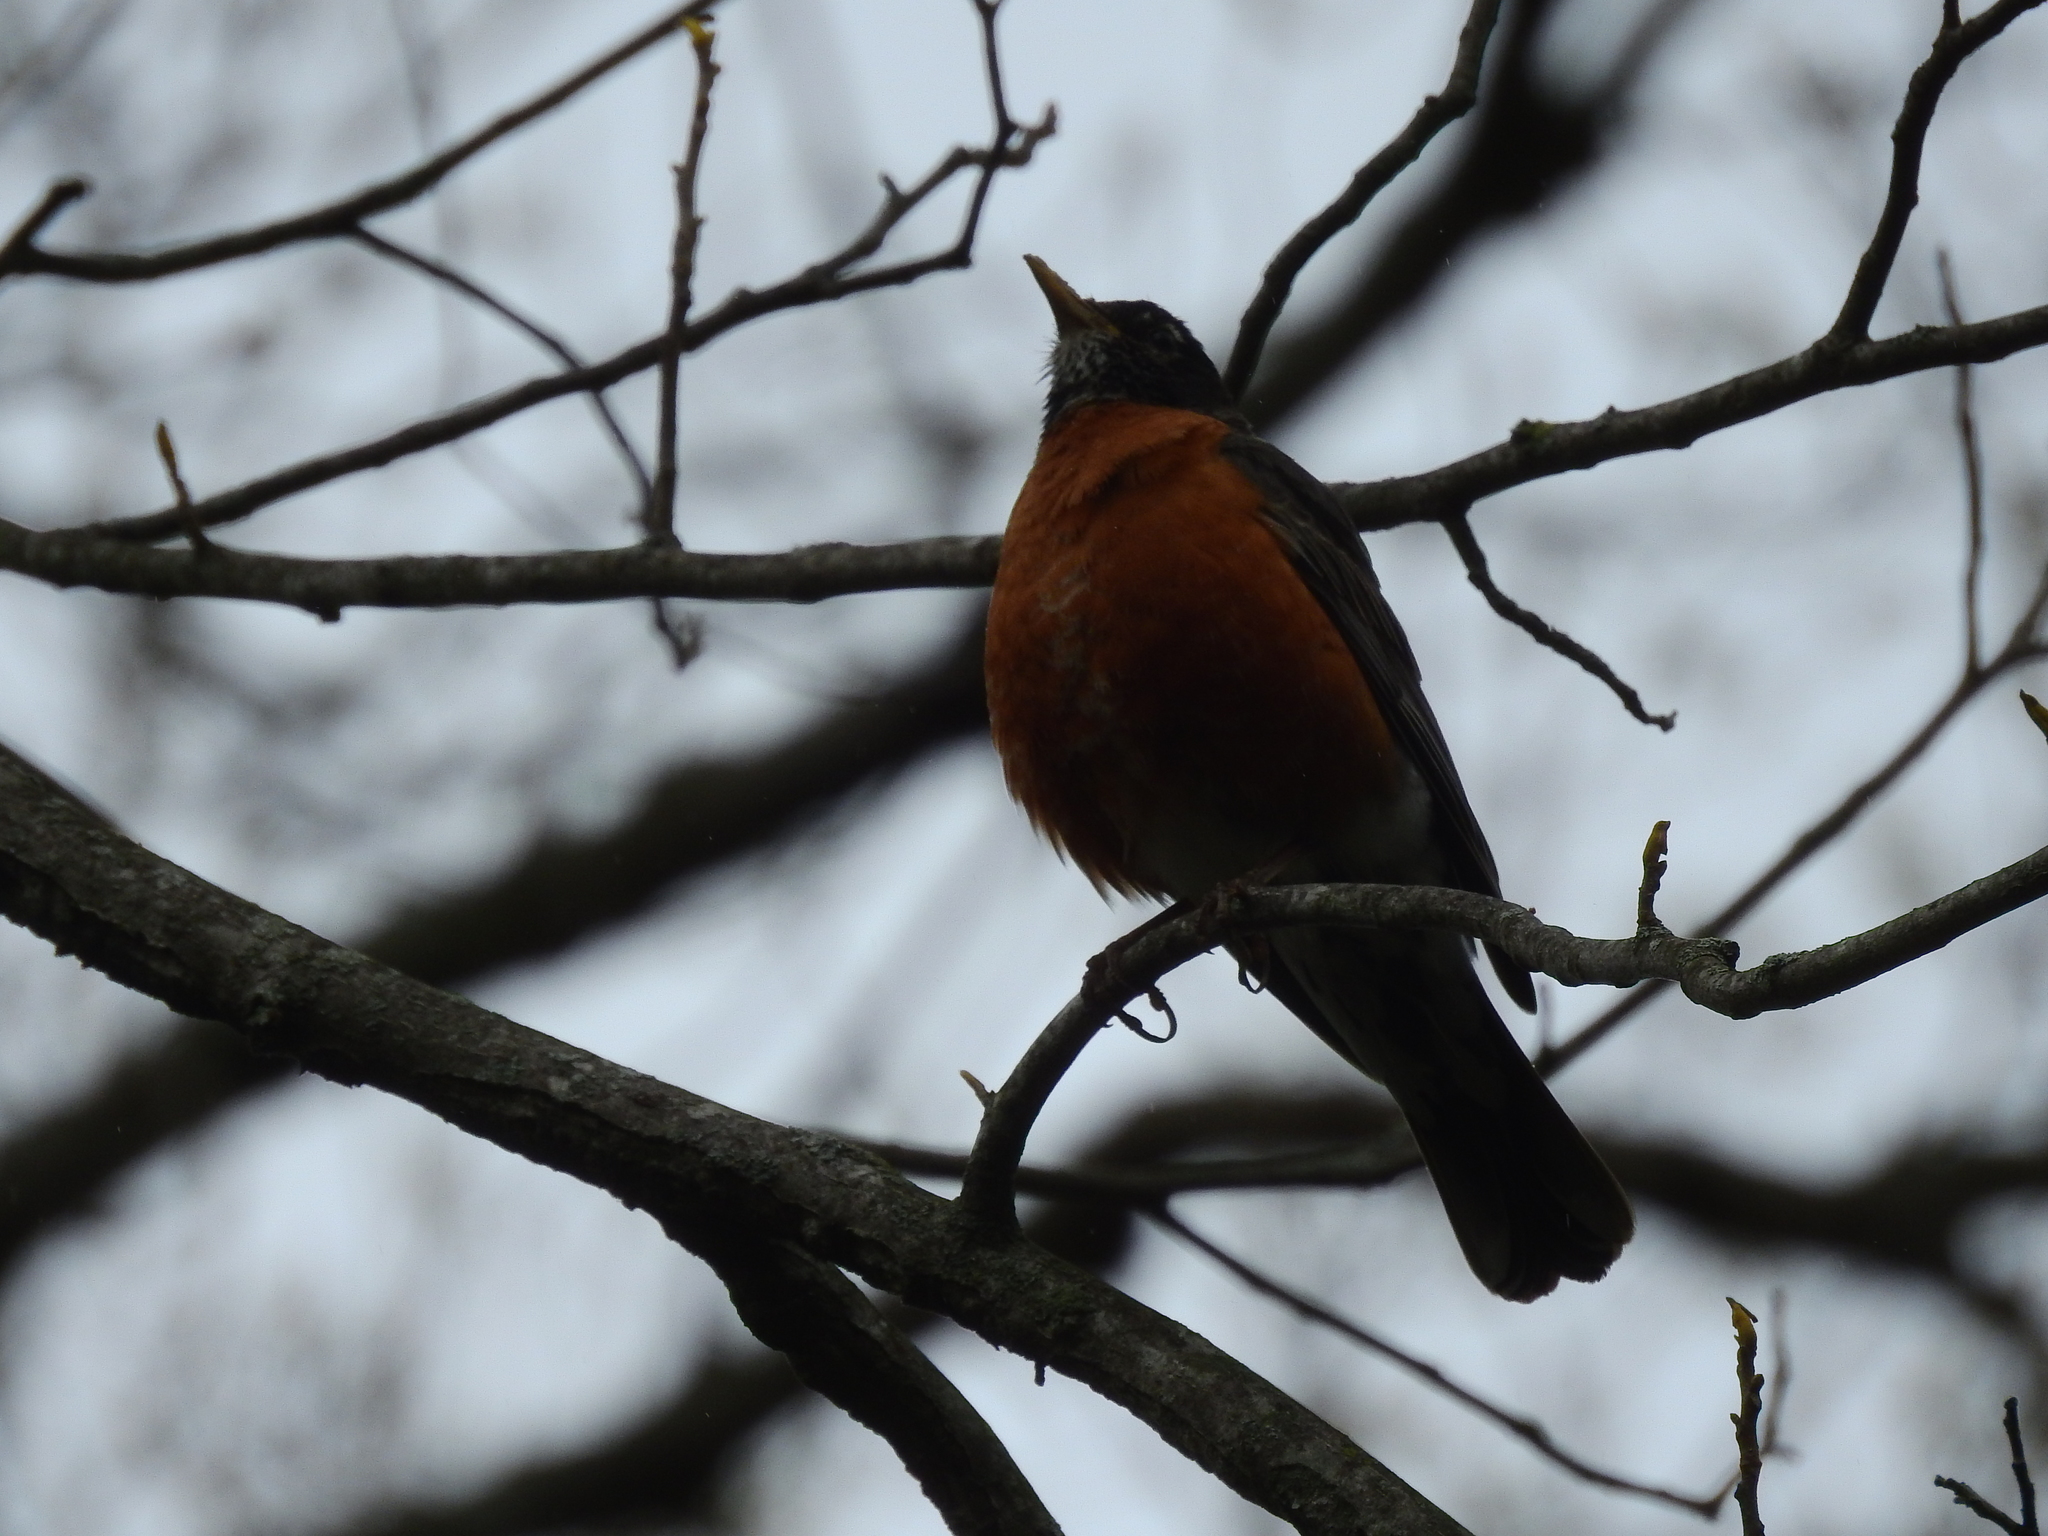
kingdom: Animalia
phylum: Chordata
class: Aves
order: Passeriformes
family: Turdidae
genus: Turdus
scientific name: Turdus migratorius
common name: American robin
